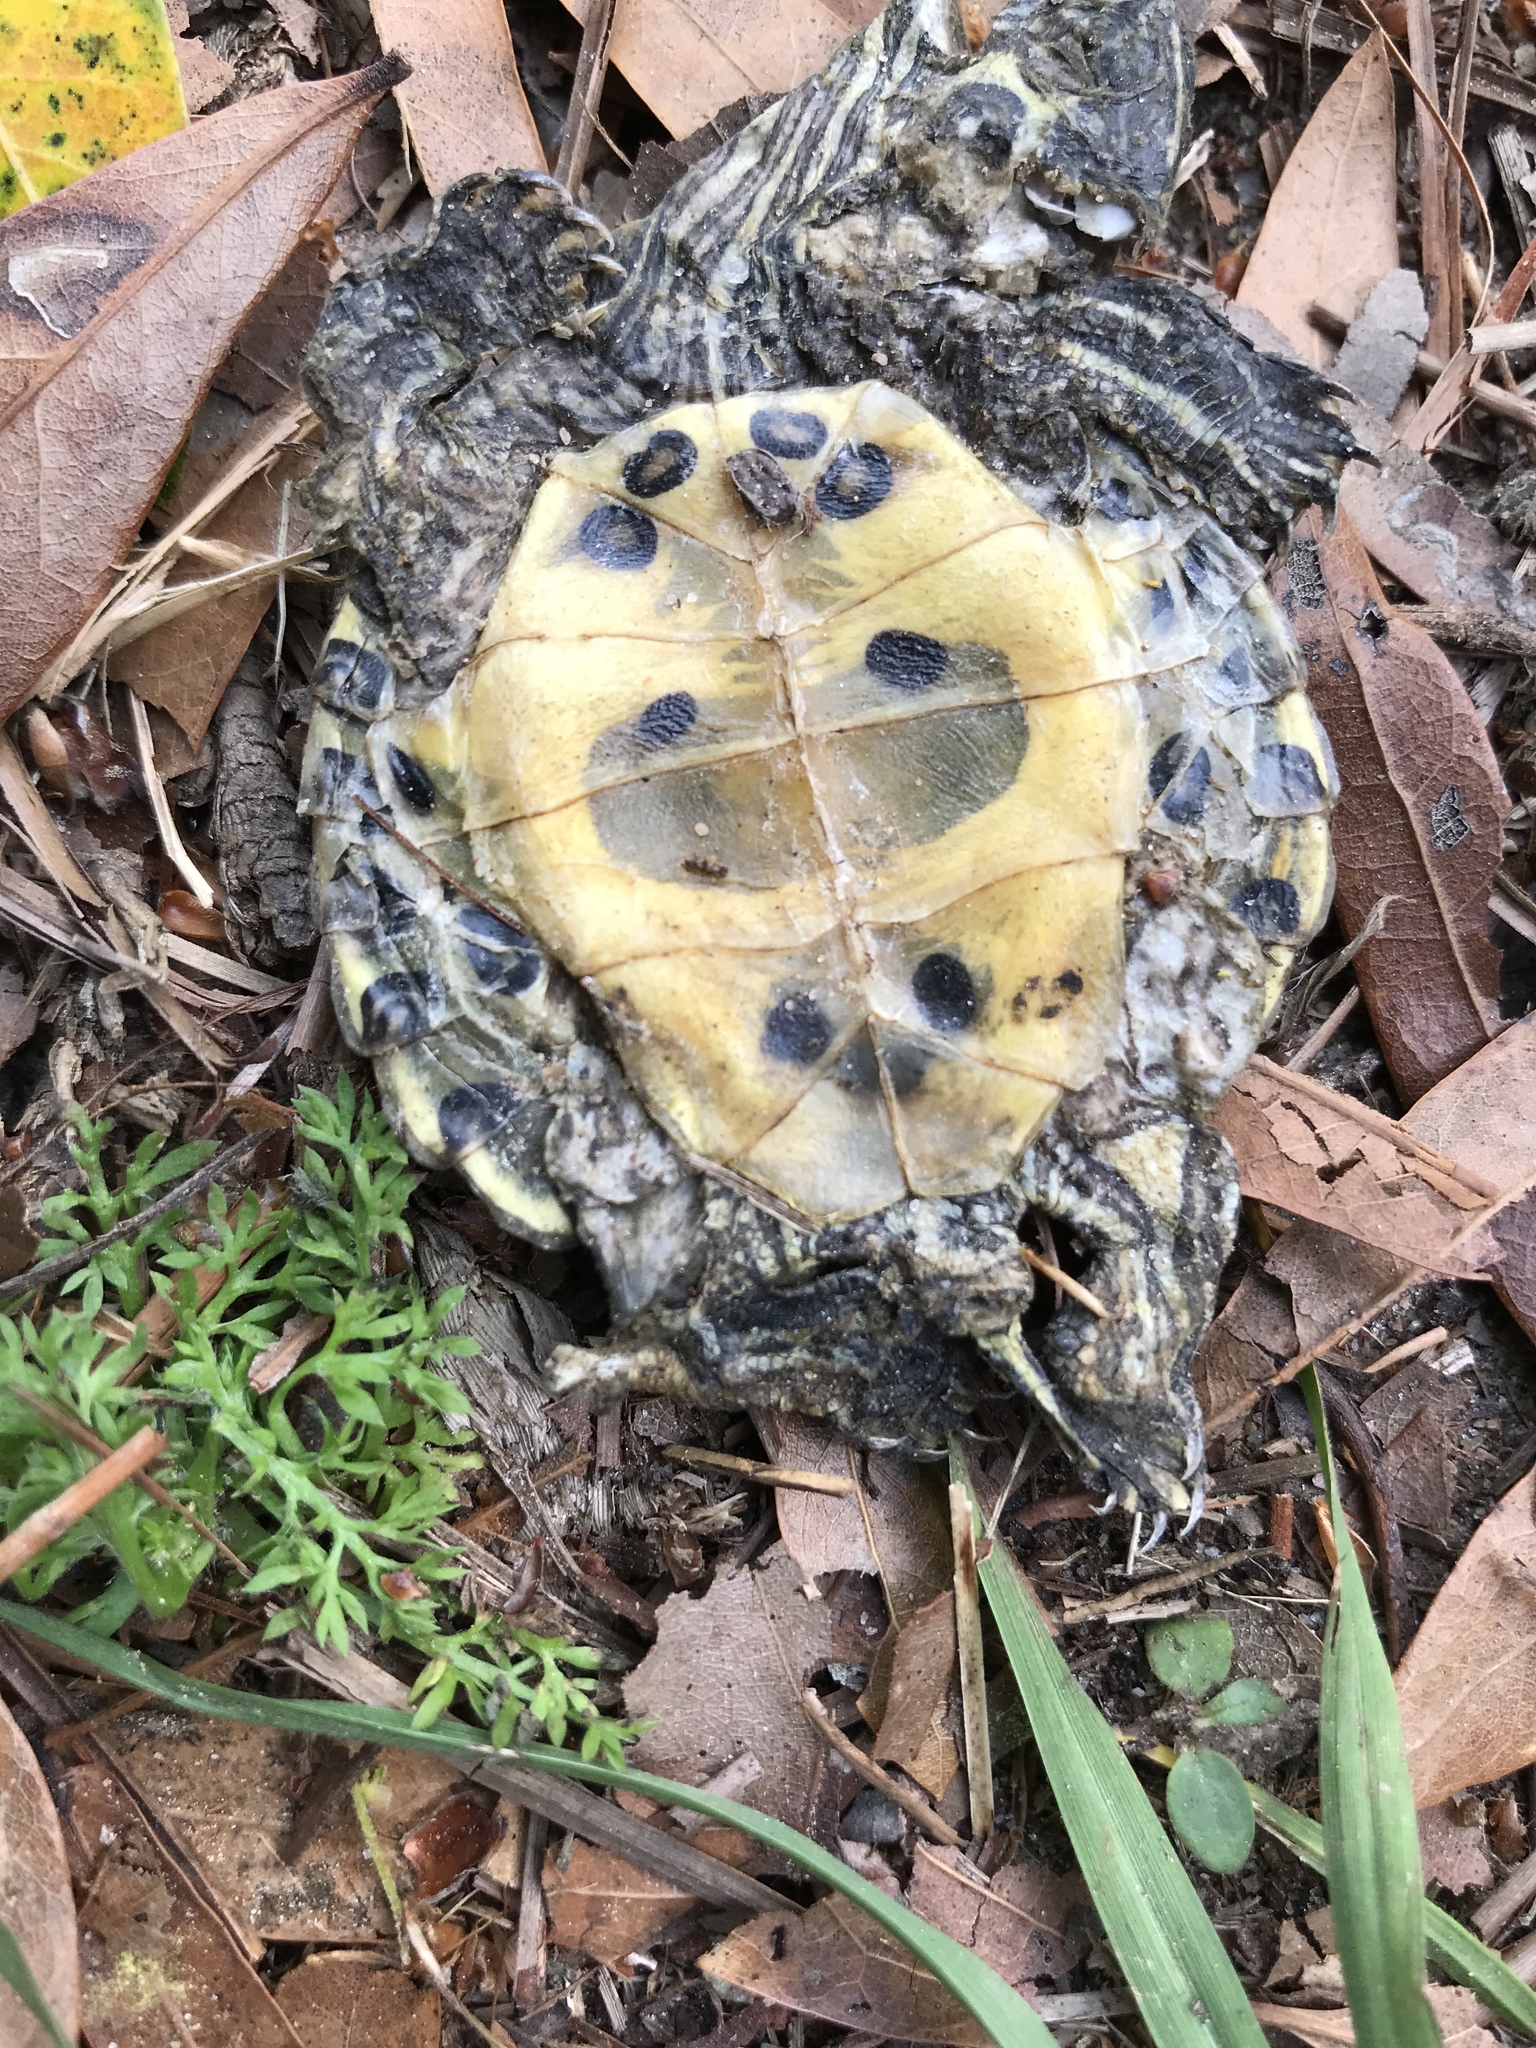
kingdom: Animalia
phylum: Chordata
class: Testudines
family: Emydidae
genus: Trachemys
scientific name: Trachemys scripta
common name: Slider
